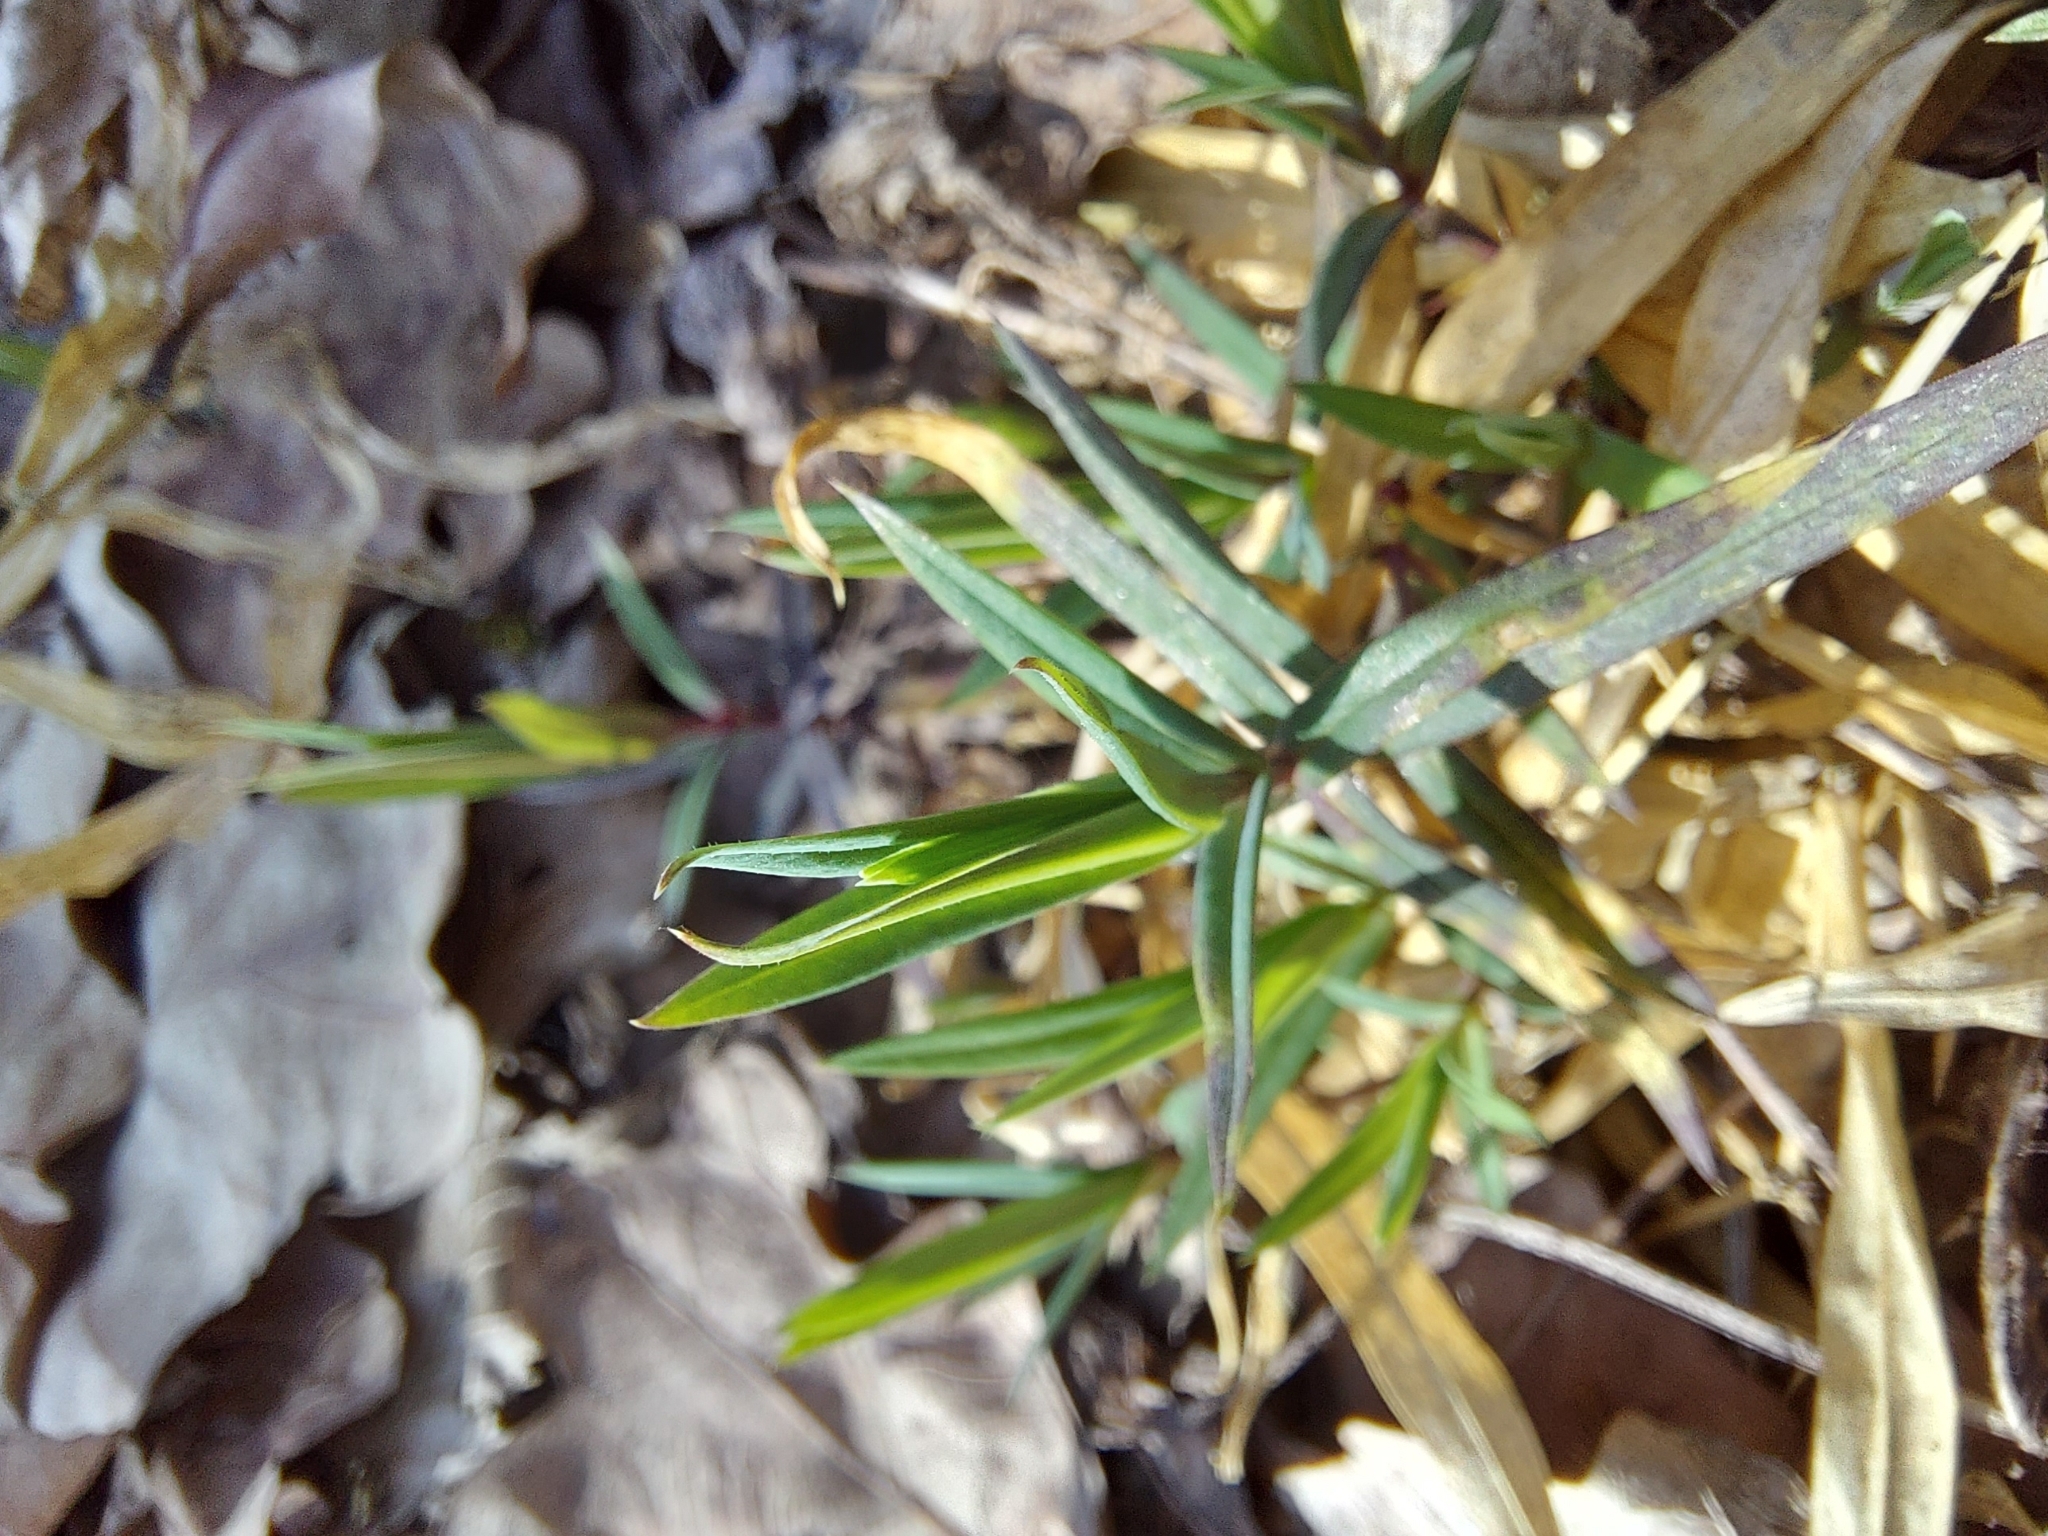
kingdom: Plantae
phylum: Tracheophyta
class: Magnoliopsida
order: Caryophyllales
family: Caryophyllaceae
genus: Rabelera
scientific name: Rabelera holostea
